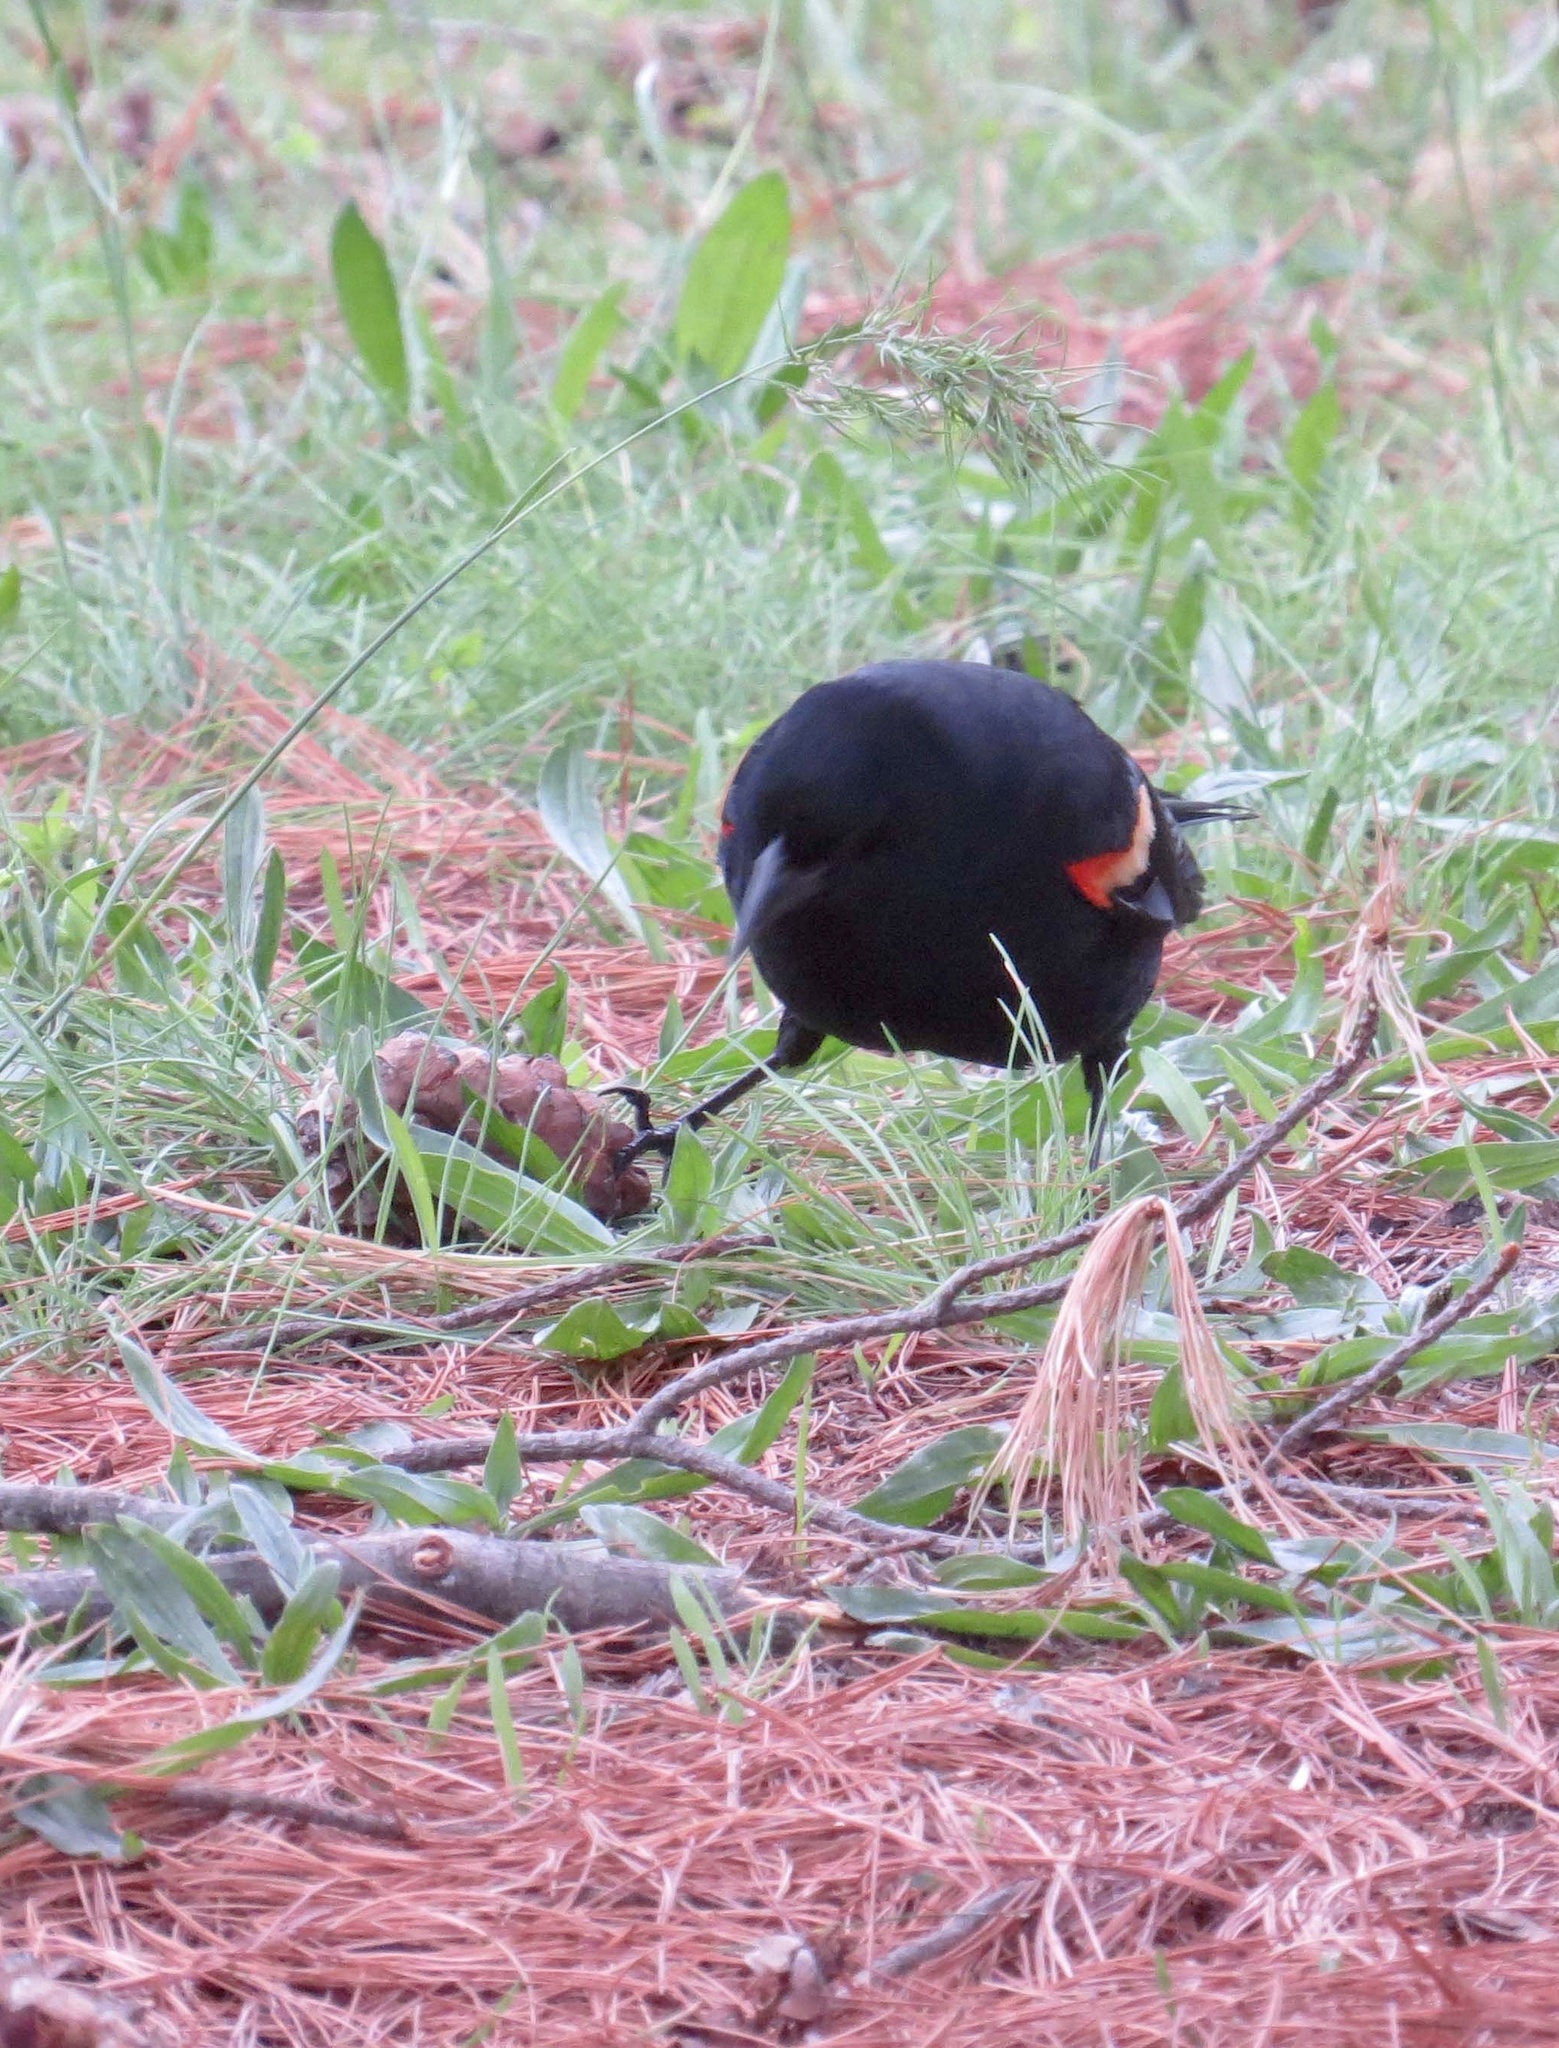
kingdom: Animalia
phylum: Chordata
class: Aves
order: Passeriformes
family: Icteridae
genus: Agelaius
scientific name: Agelaius phoeniceus
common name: Red-winged blackbird
